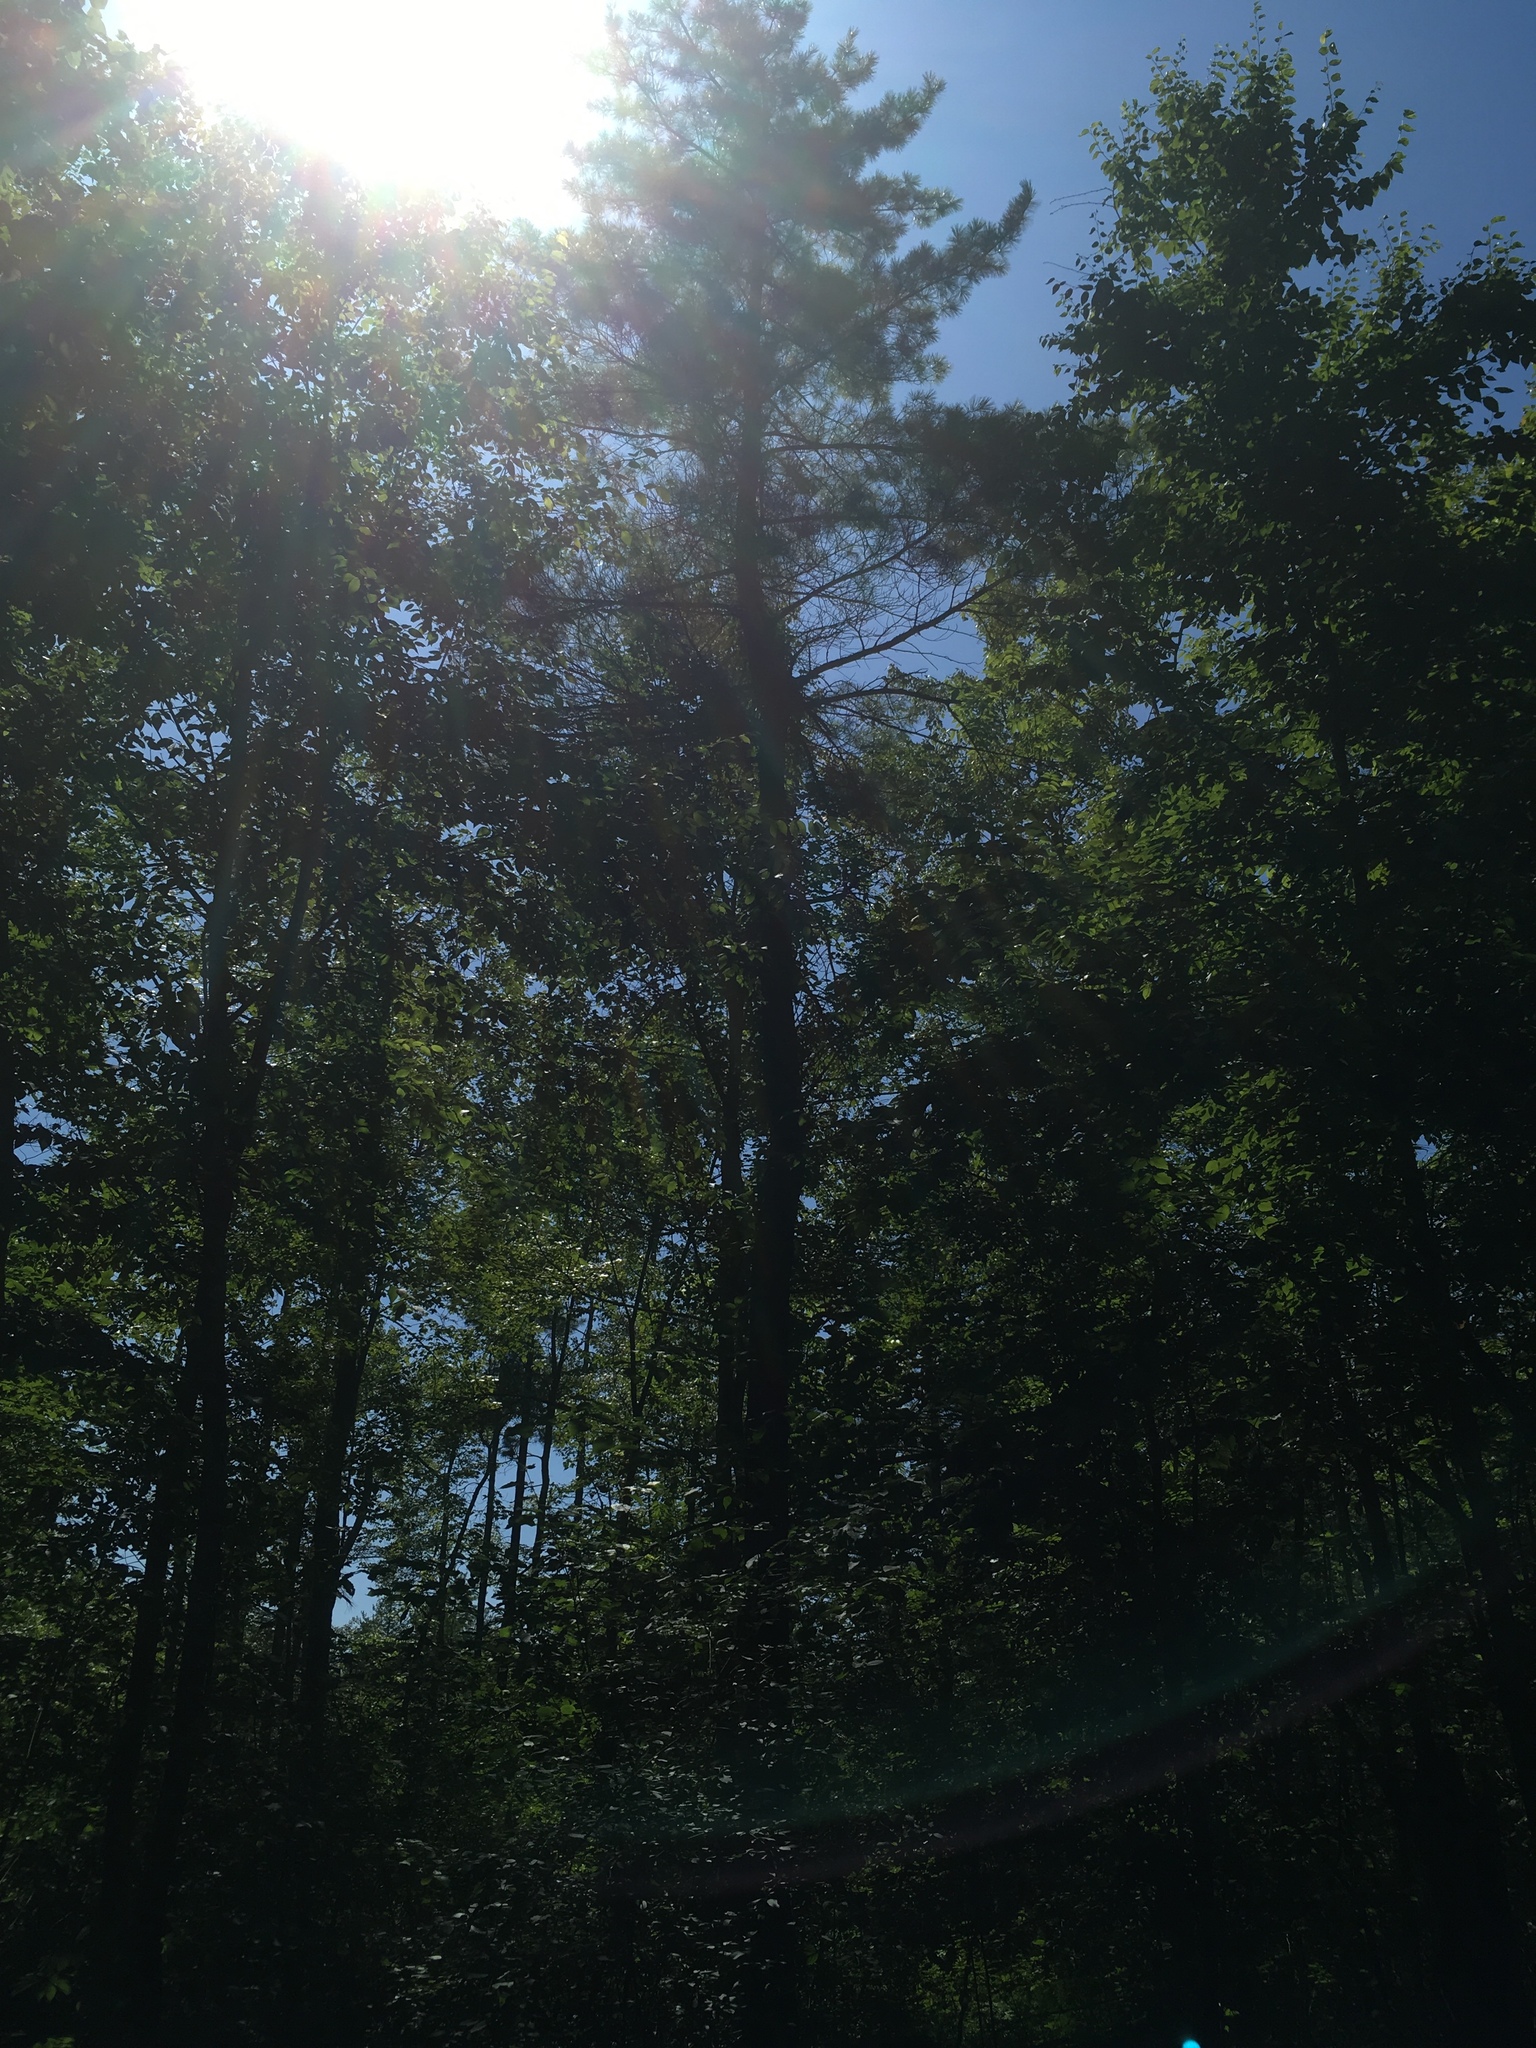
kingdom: Plantae
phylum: Tracheophyta
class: Pinopsida
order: Pinales
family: Pinaceae
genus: Pinus
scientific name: Pinus strobus
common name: Weymouth pine
